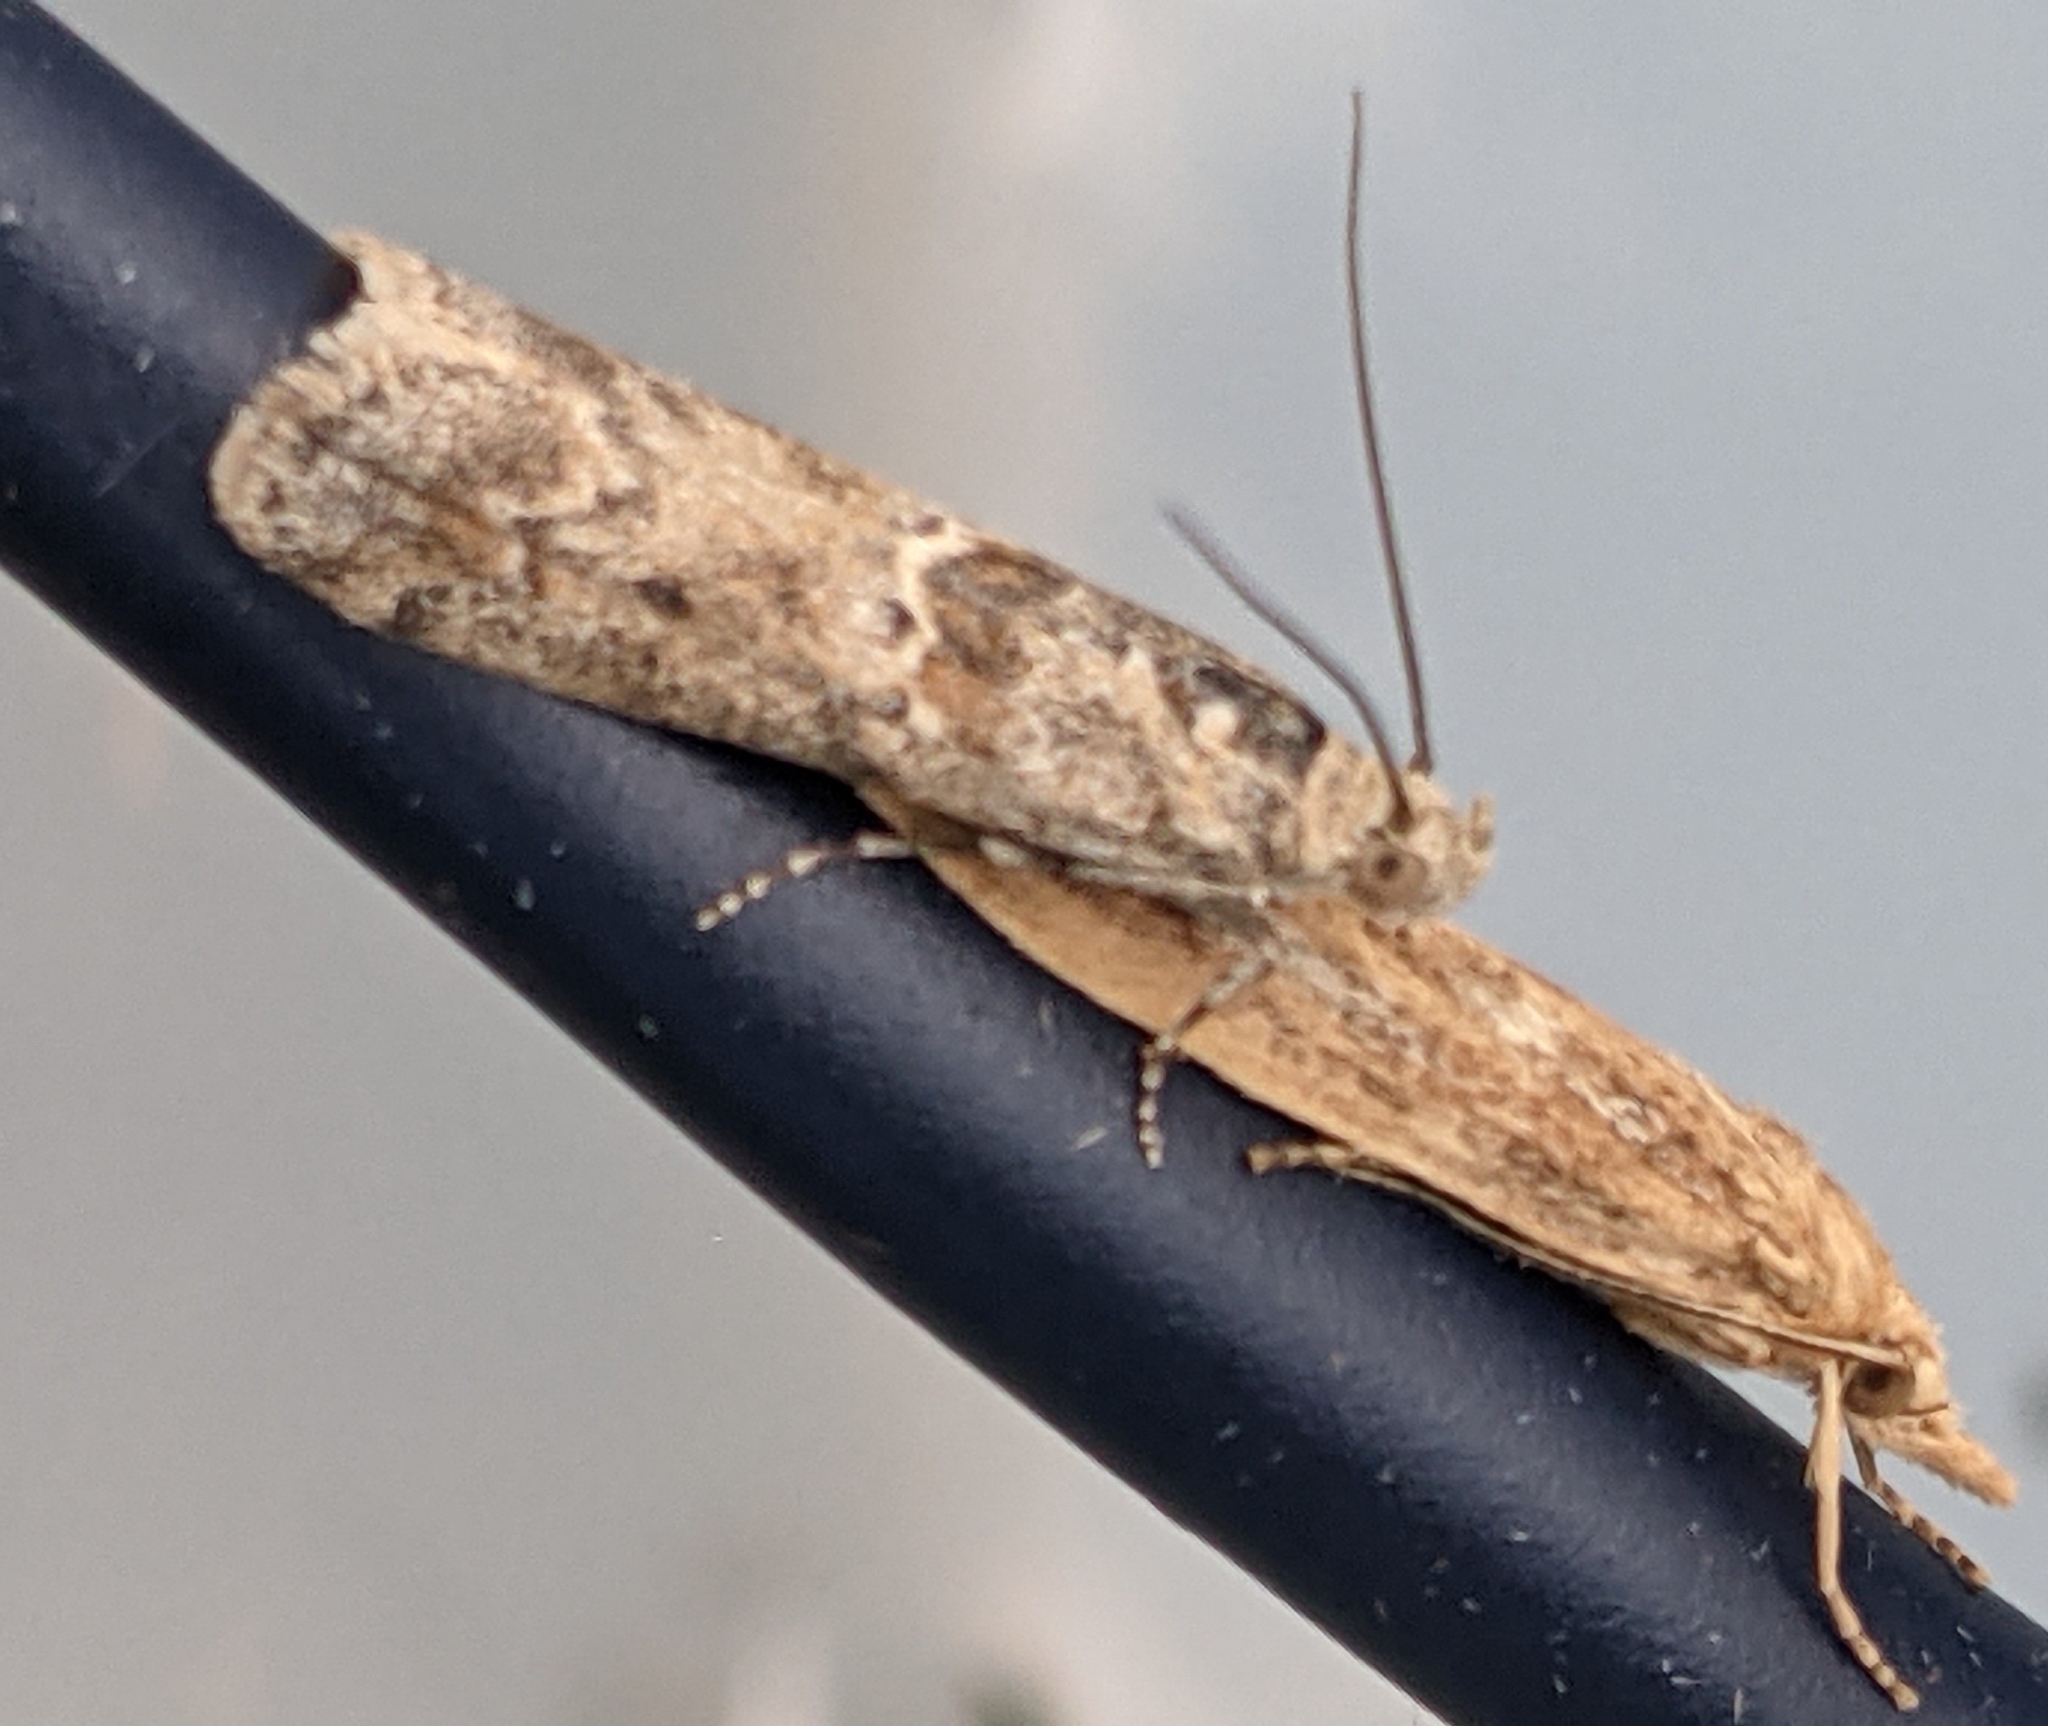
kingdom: Animalia
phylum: Arthropoda
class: Insecta
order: Lepidoptera
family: Pyralidae
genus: Ancylosis
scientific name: Ancylosis undulatella
